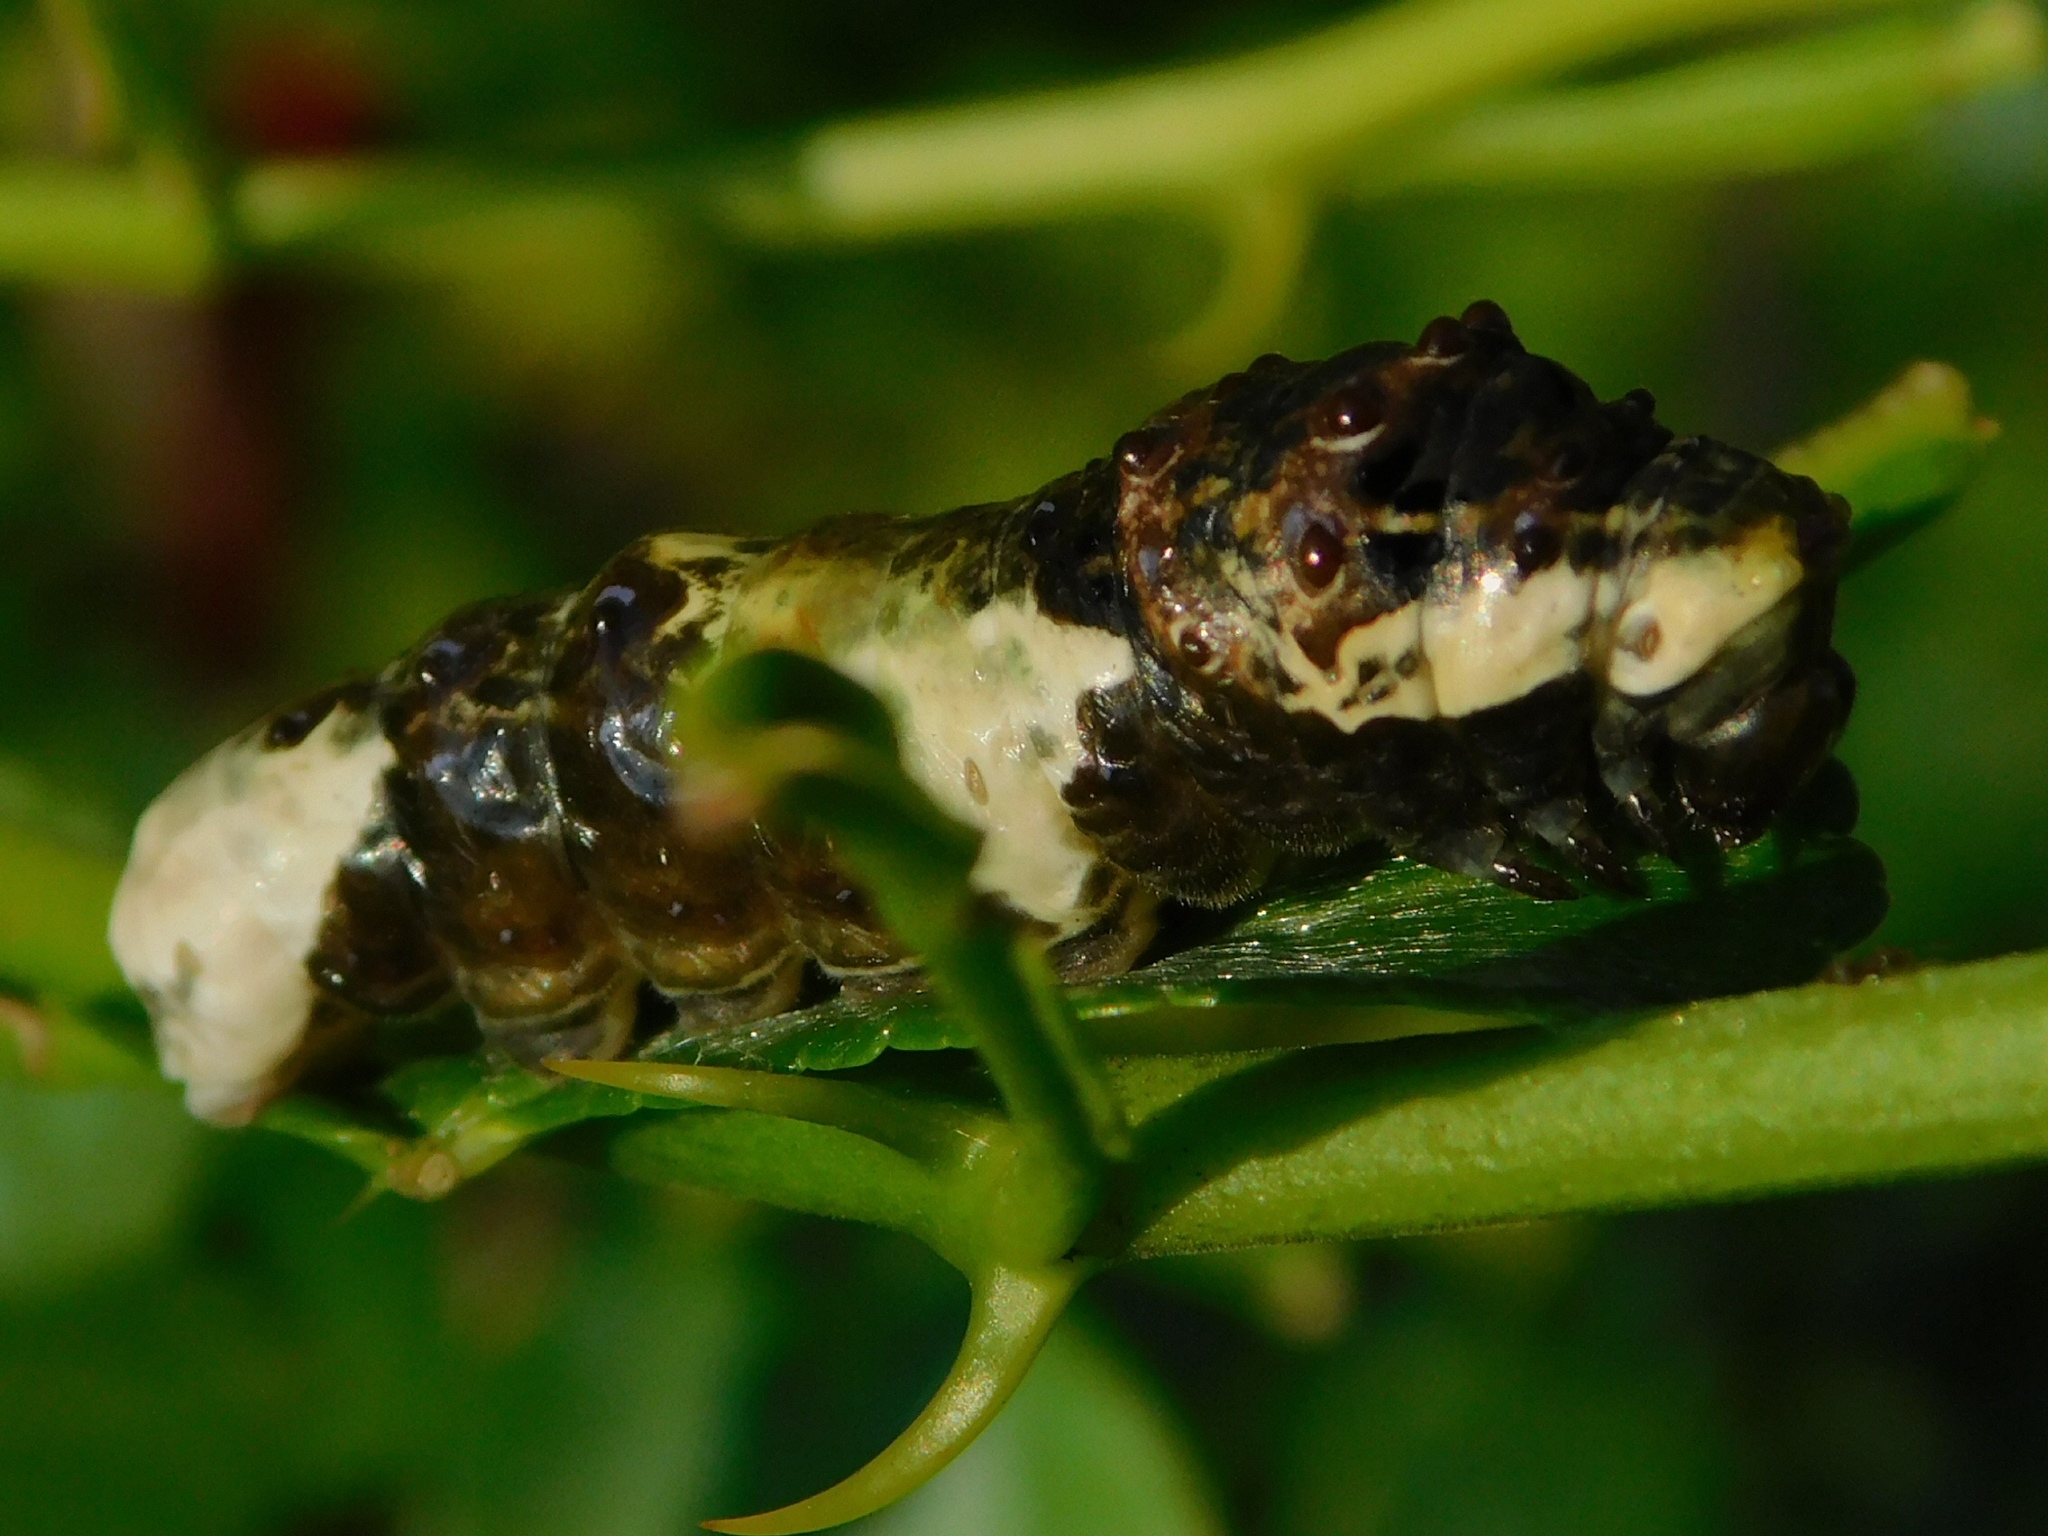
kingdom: Animalia
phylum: Arthropoda
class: Insecta
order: Lepidoptera
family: Papilionidae
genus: Papilio
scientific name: Papilio cresphontes
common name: Giant swallowtail
